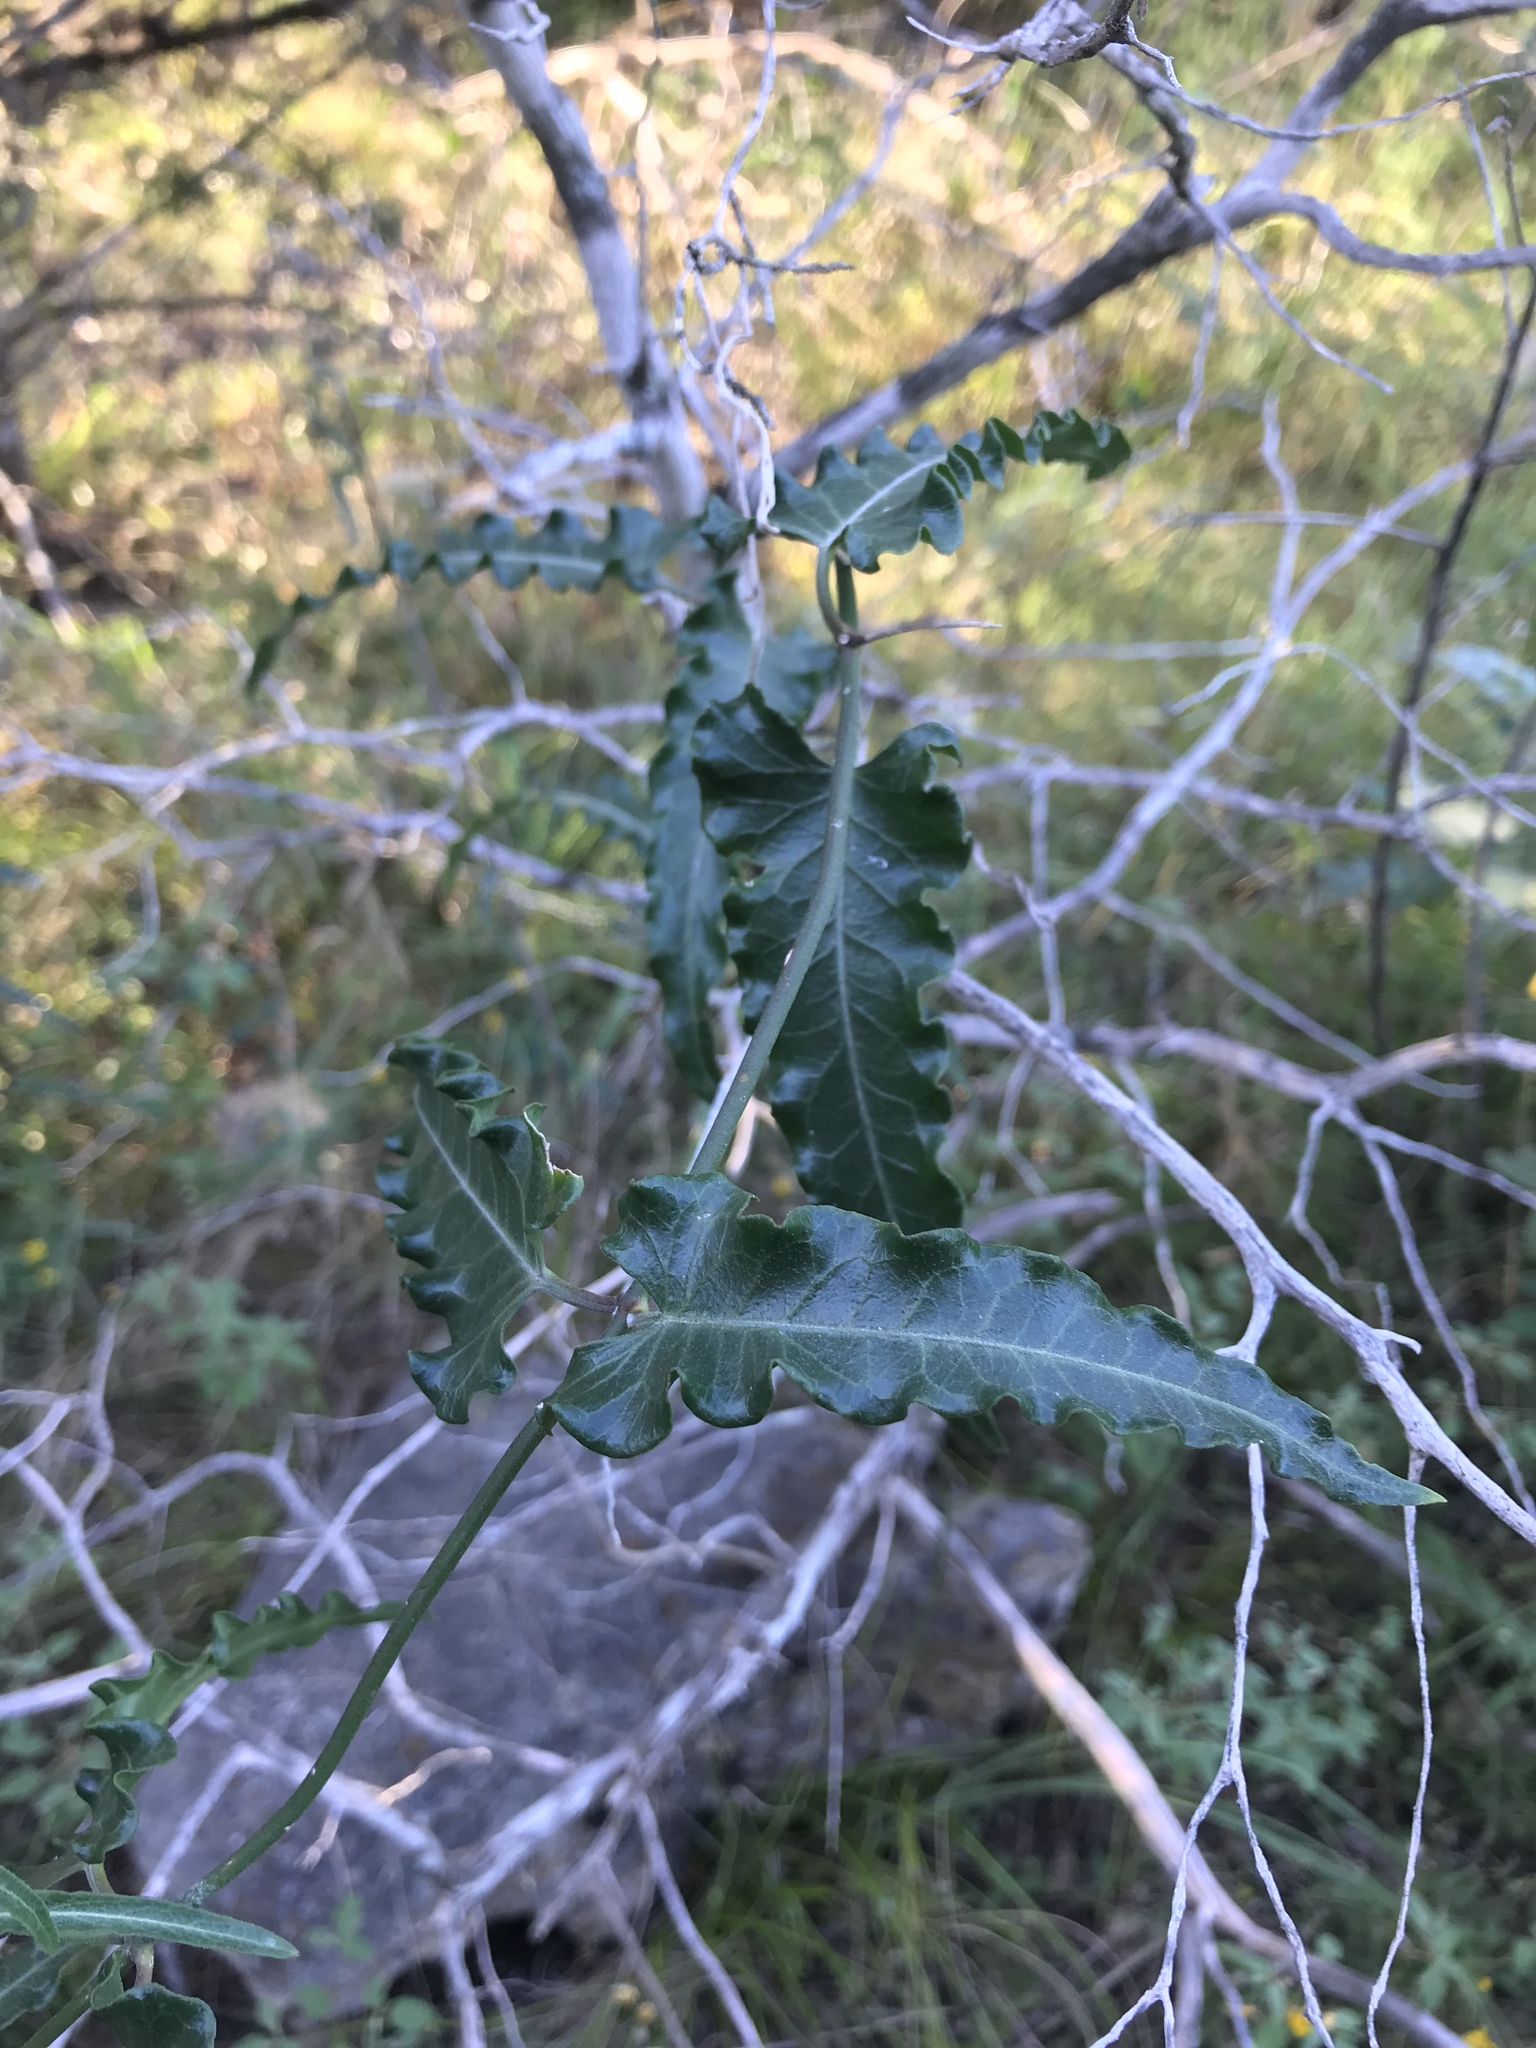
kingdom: Plantae
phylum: Tracheophyta
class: Magnoliopsida
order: Gentianales
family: Apocynaceae
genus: Funastrum
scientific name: Funastrum crispum
